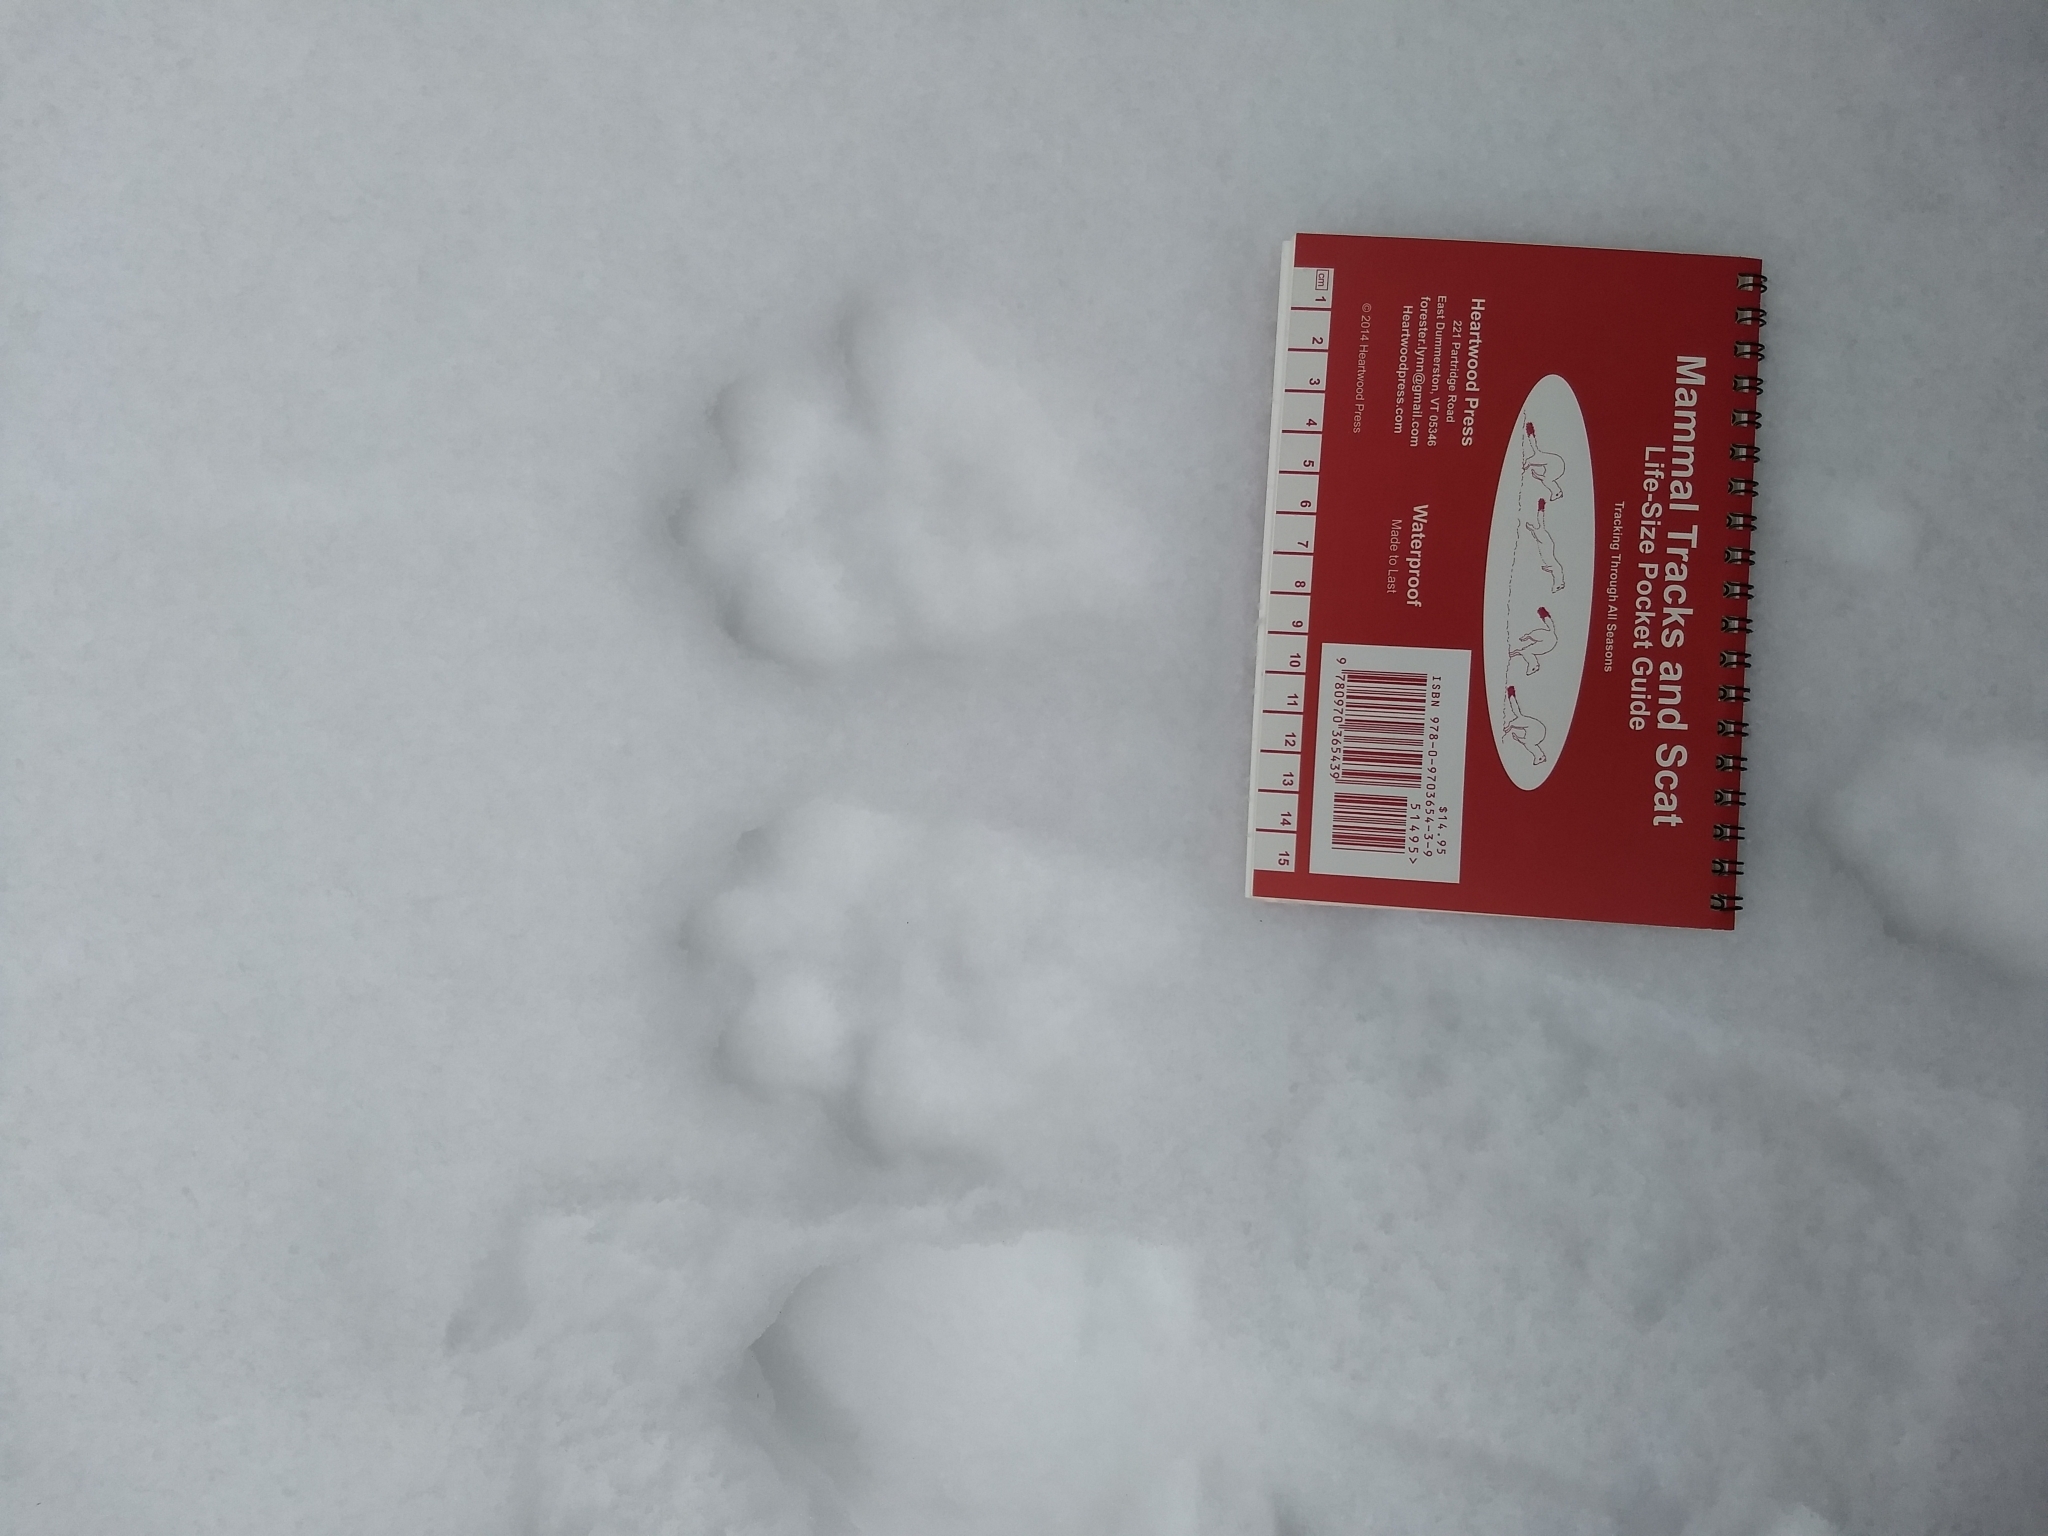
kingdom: Animalia
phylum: Chordata
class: Mammalia
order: Lagomorpha
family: Leporidae
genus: Lepus
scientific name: Lepus americanus
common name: Snowshoe hare
